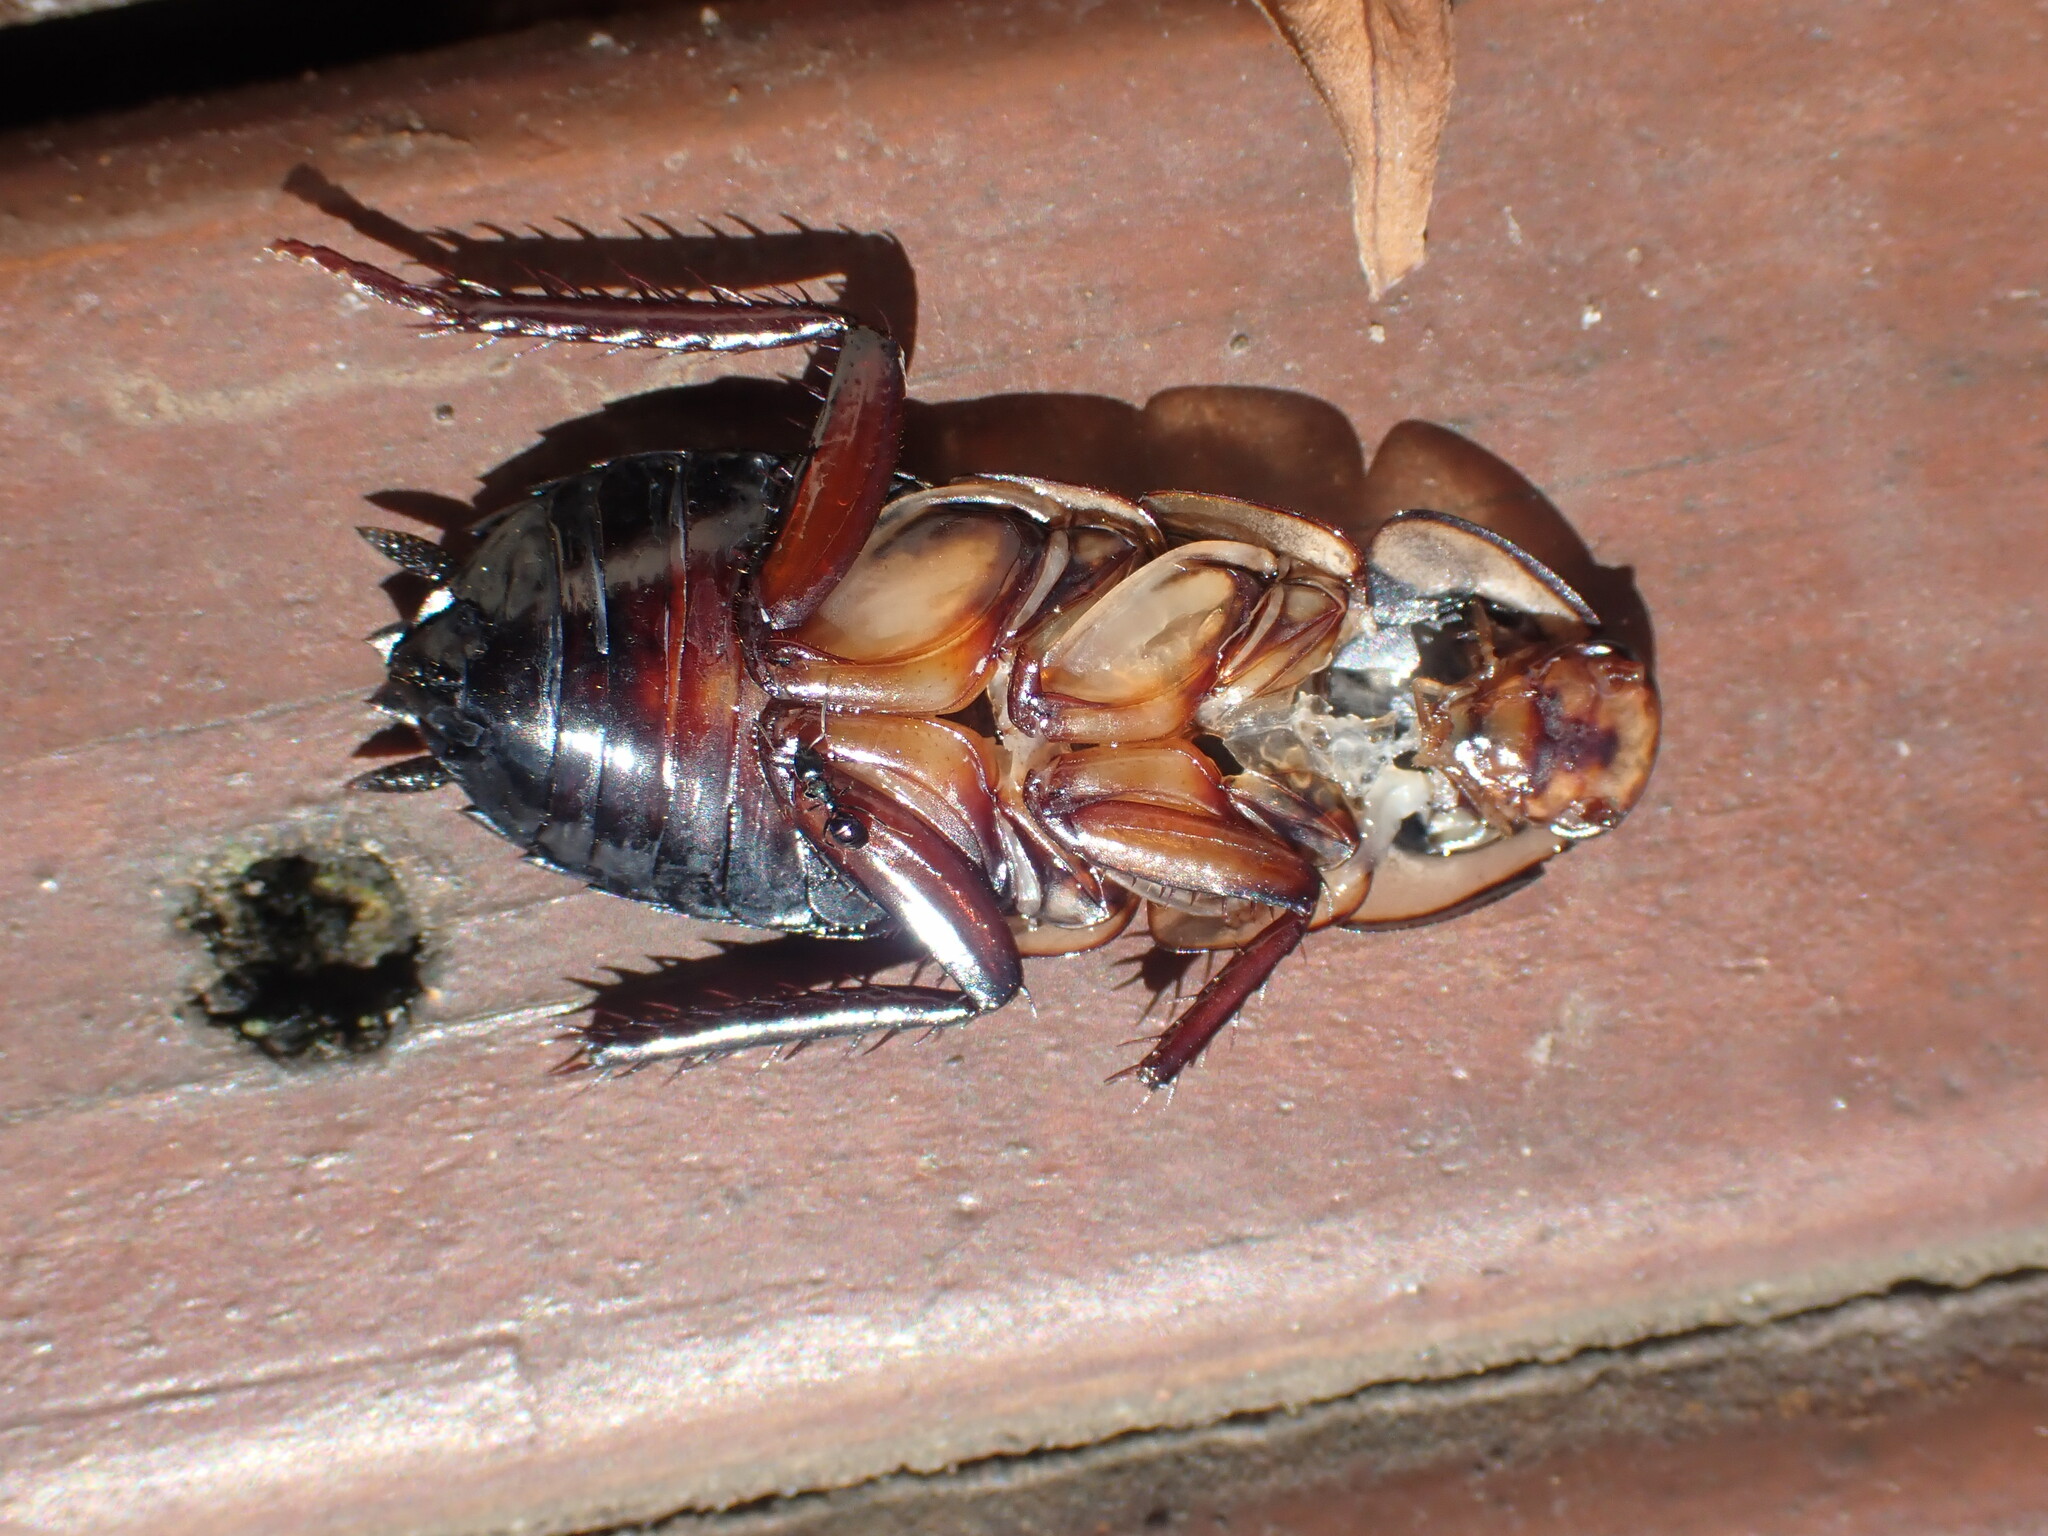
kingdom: Animalia
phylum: Arthropoda
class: Insecta
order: Blattodea
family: Blattidae
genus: Drymaplaneta
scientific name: Drymaplaneta semivitta
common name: Gisborne cockroach
